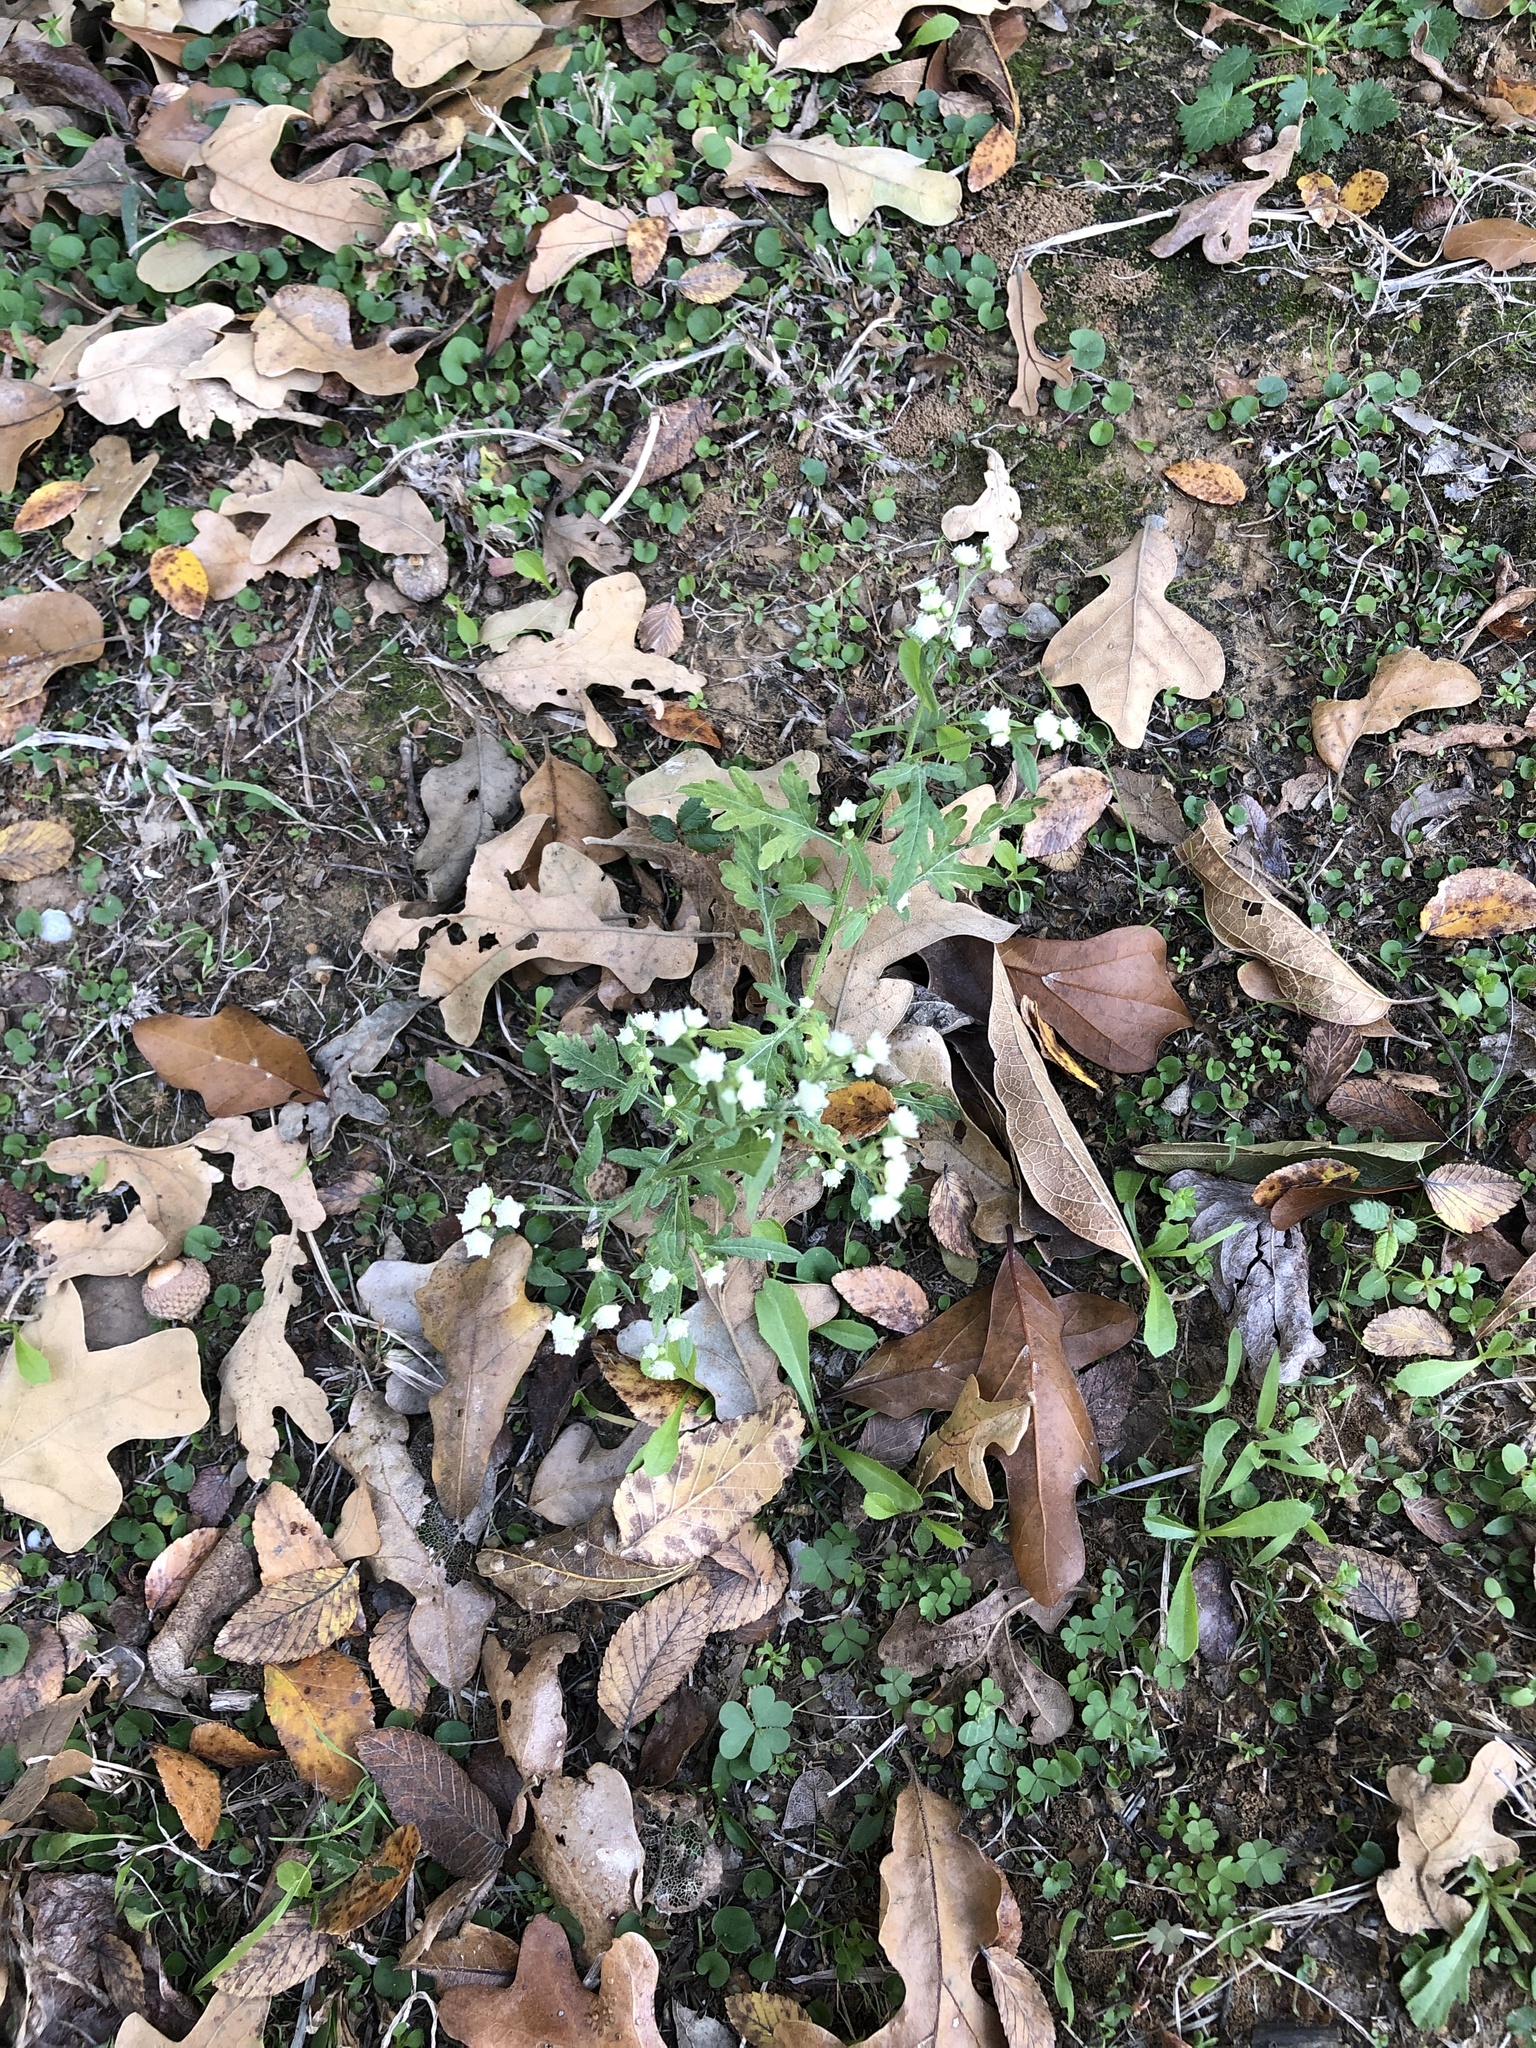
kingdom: Plantae
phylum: Tracheophyta
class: Magnoliopsida
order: Asterales
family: Asteraceae
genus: Parthenium
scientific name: Parthenium hysterophorus
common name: Santa maria feverfew
